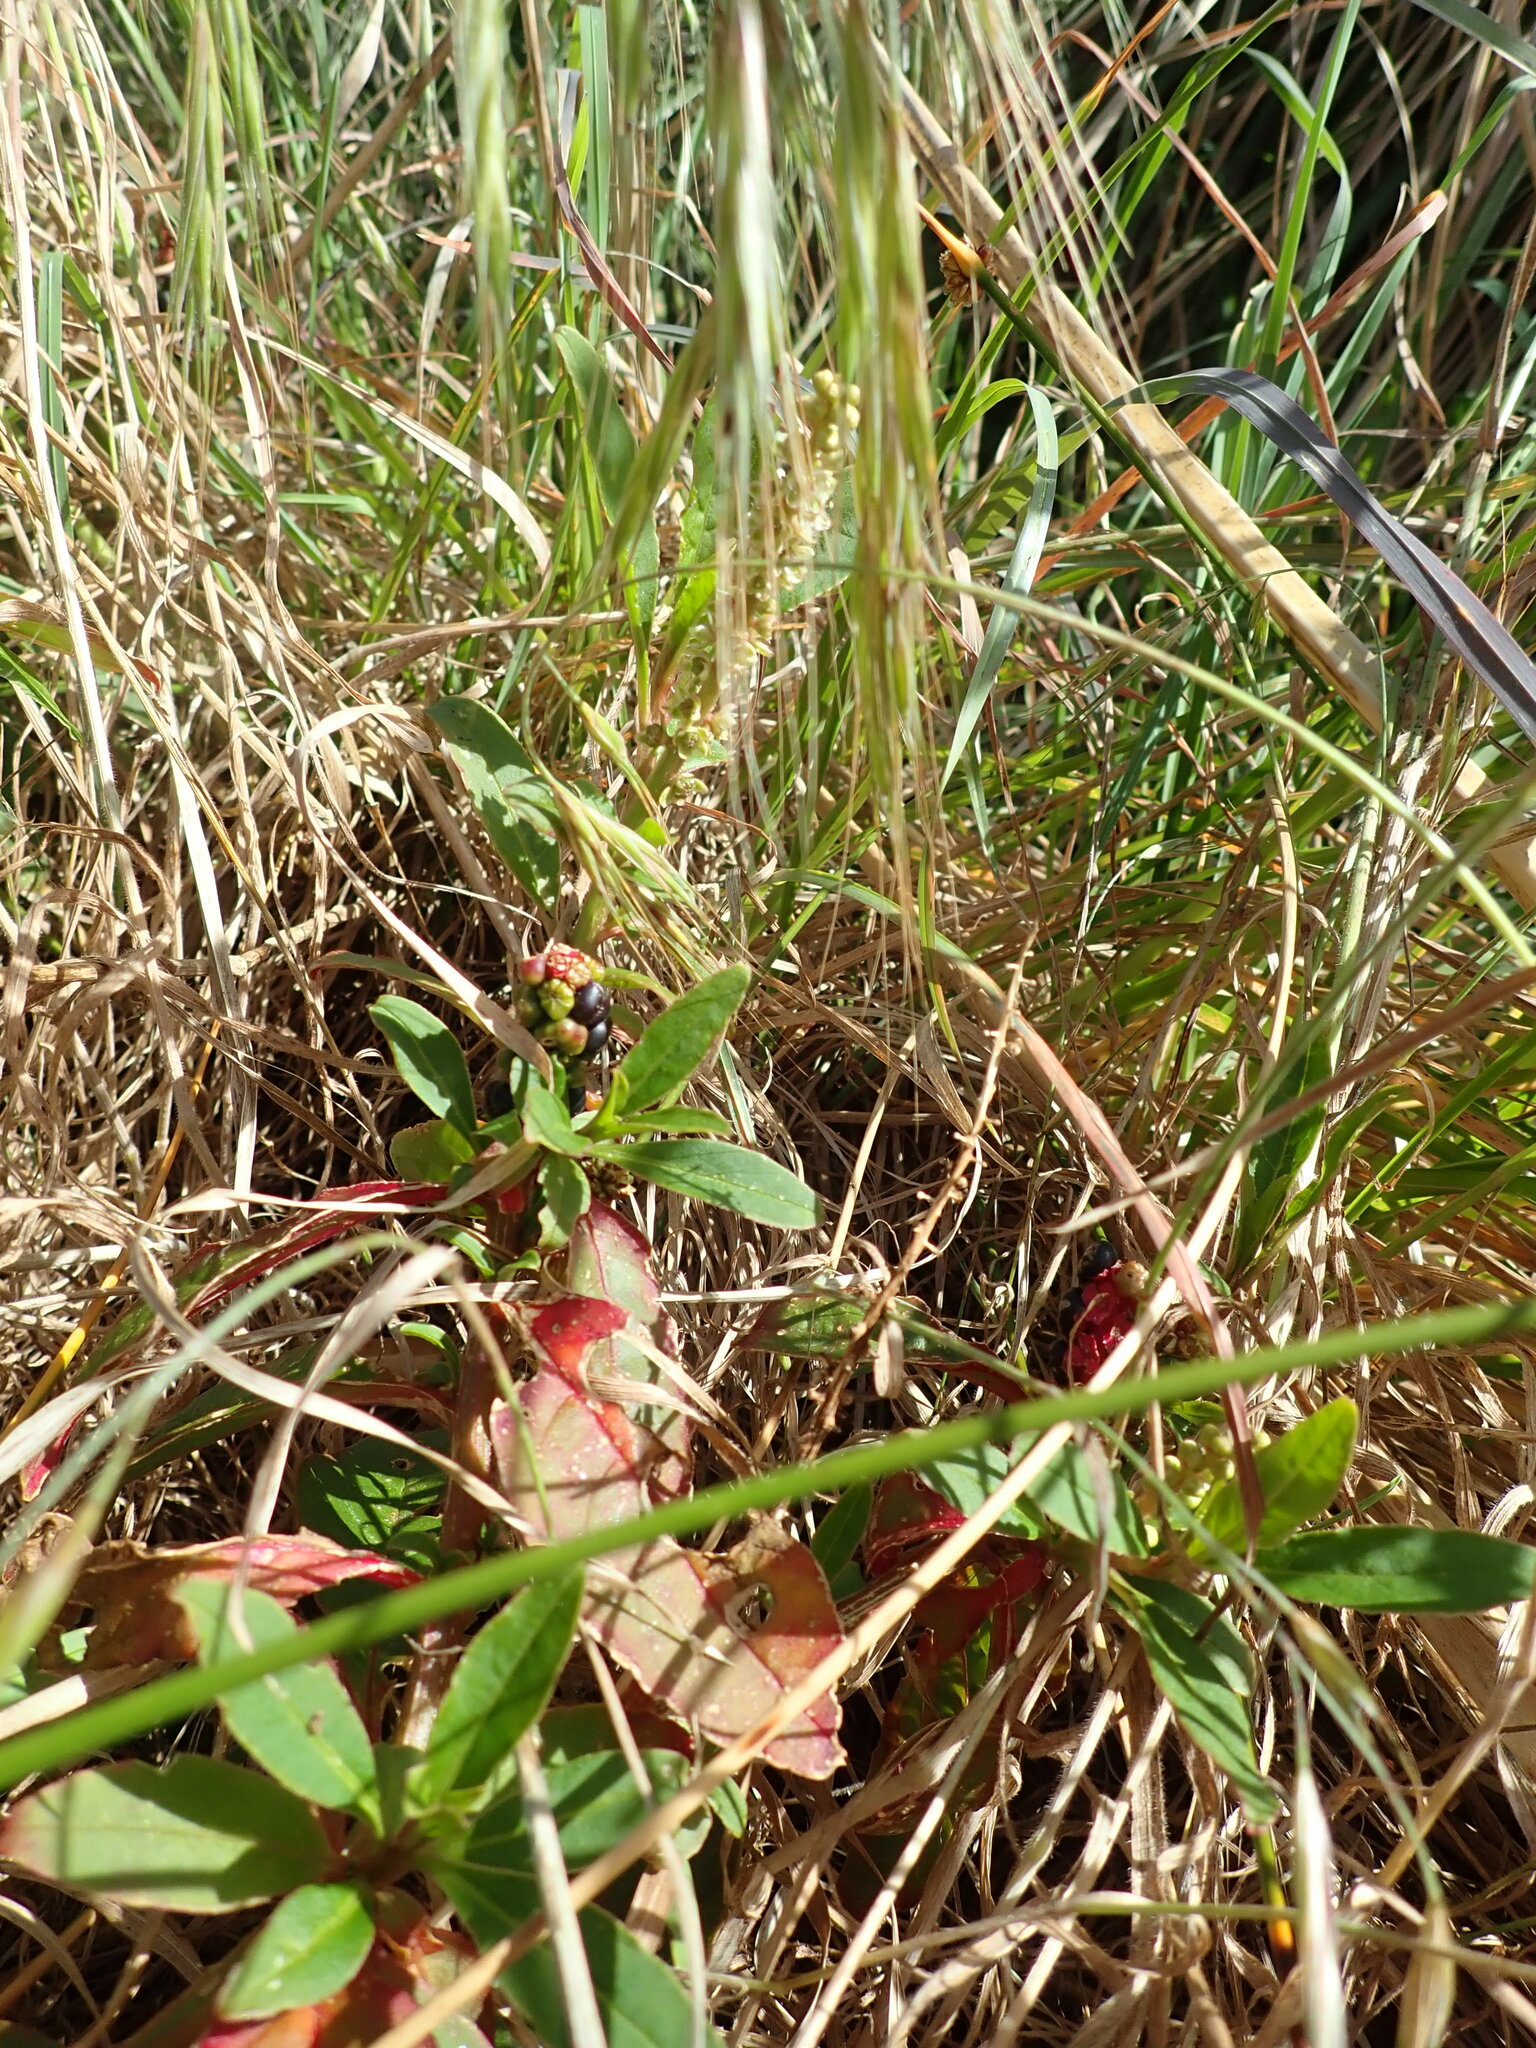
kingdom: Plantae
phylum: Tracheophyta
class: Magnoliopsida
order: Caryophyllales
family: Phytolaccaceae
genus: Phytolacca
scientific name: Phytolacca icosandra
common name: Button pokeweed
